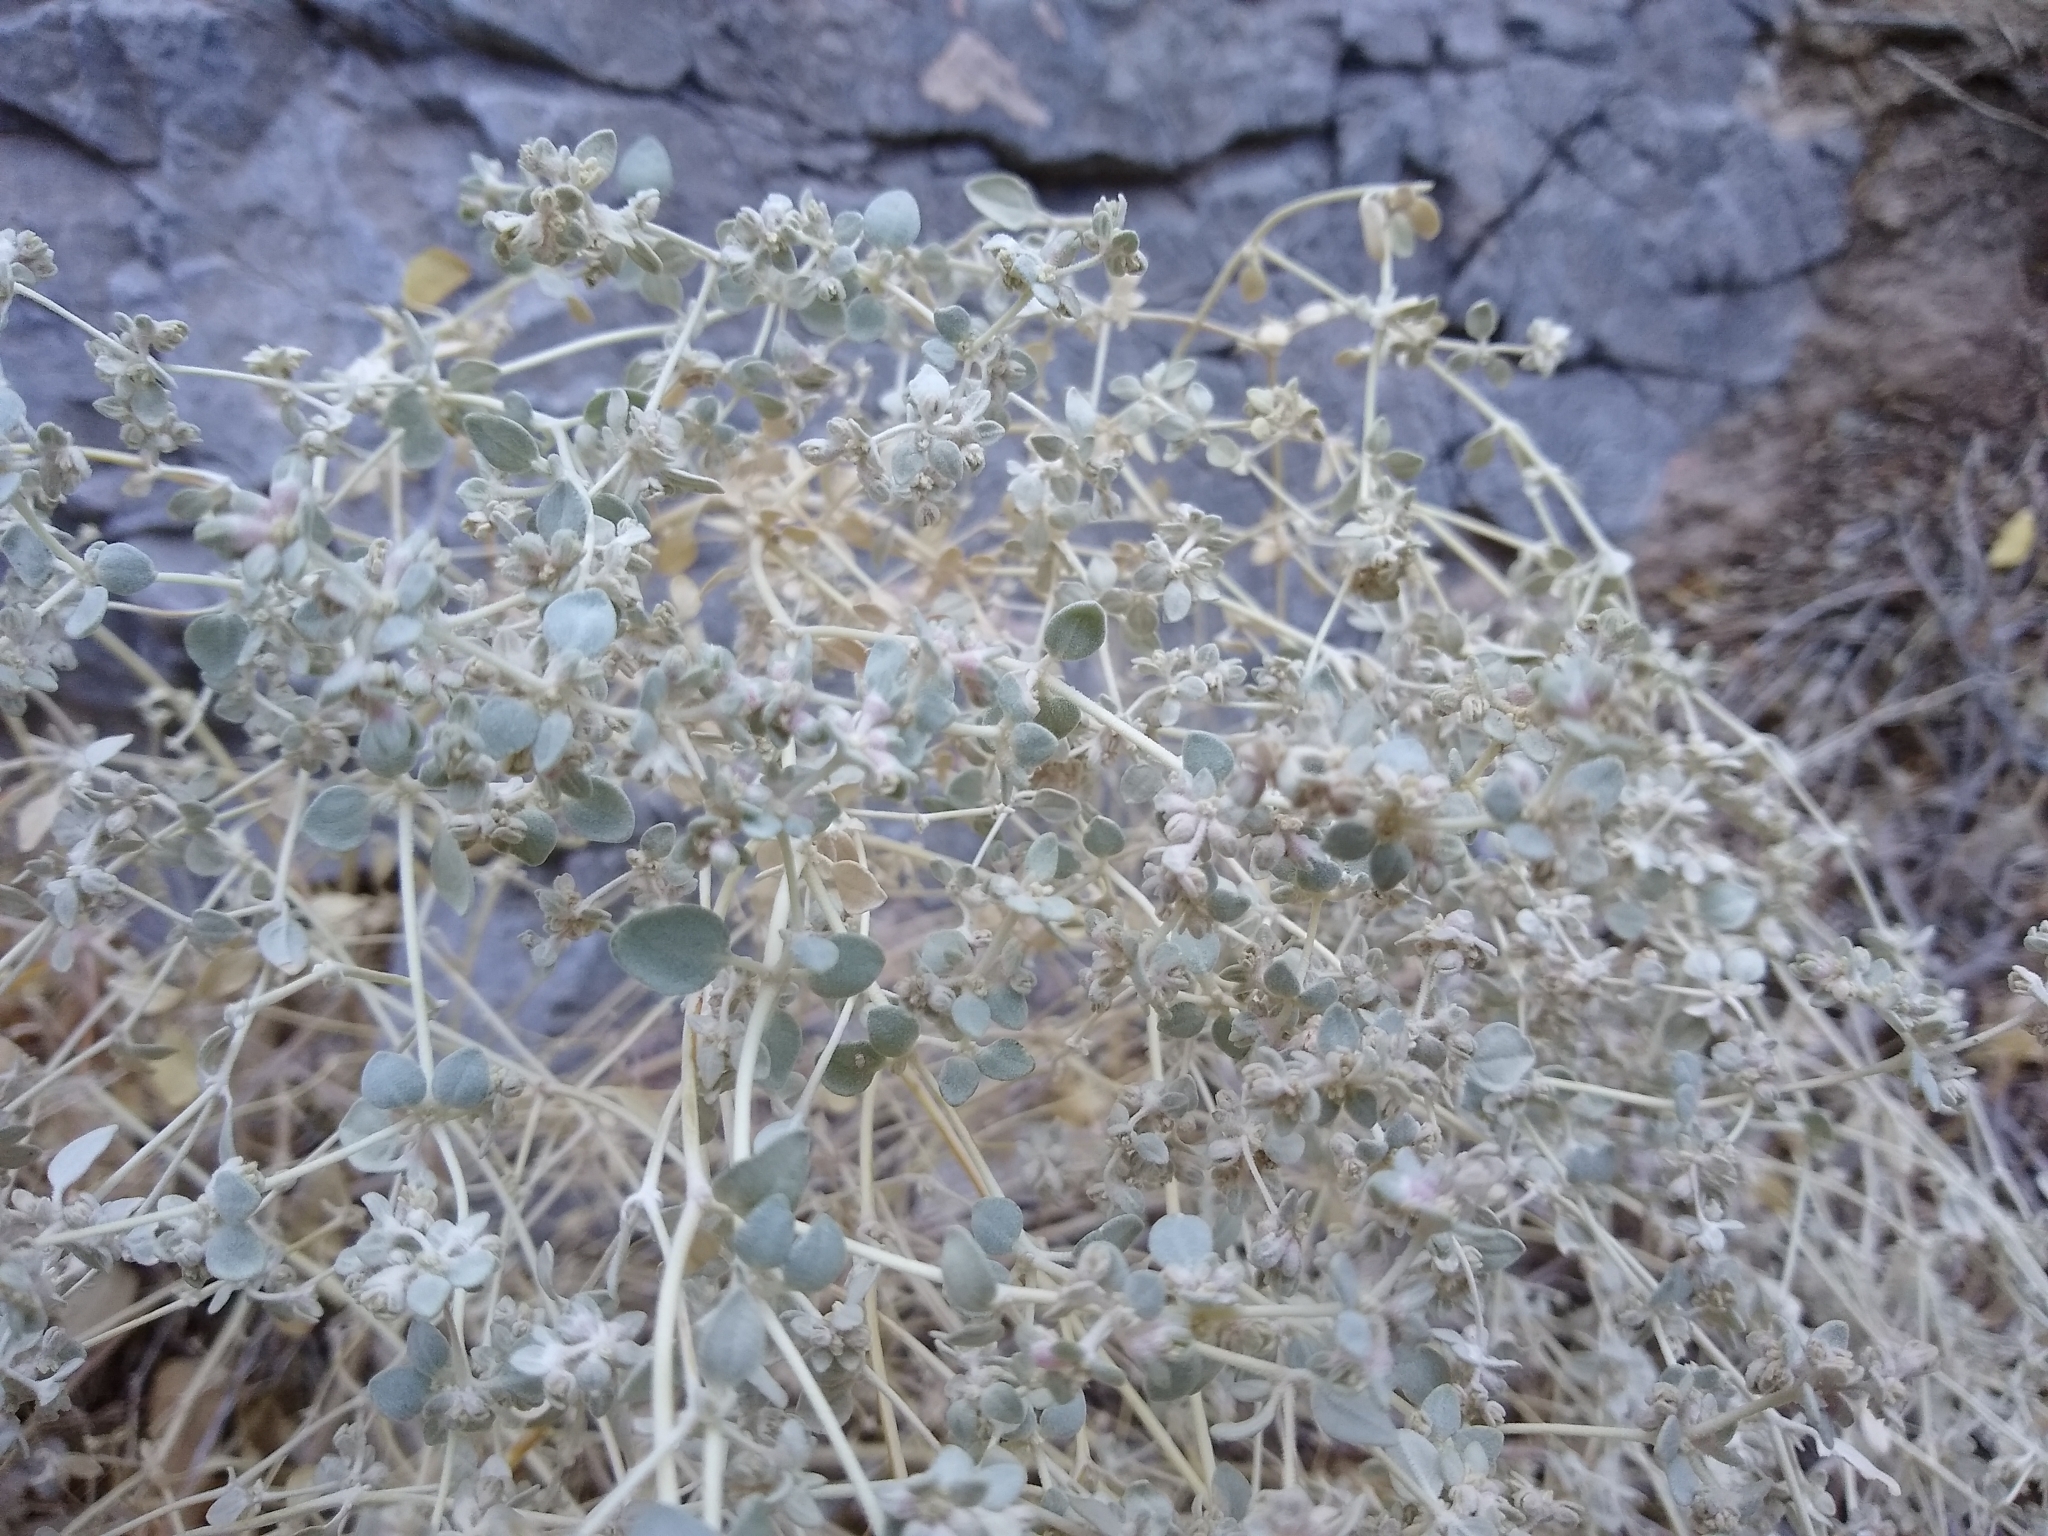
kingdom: Plantae
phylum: Tracheophyta
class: Magnoliopsida
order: Caryophyllales
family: Amaranthaceae
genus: Tidestromia
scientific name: Tidestromia suffruticosa
